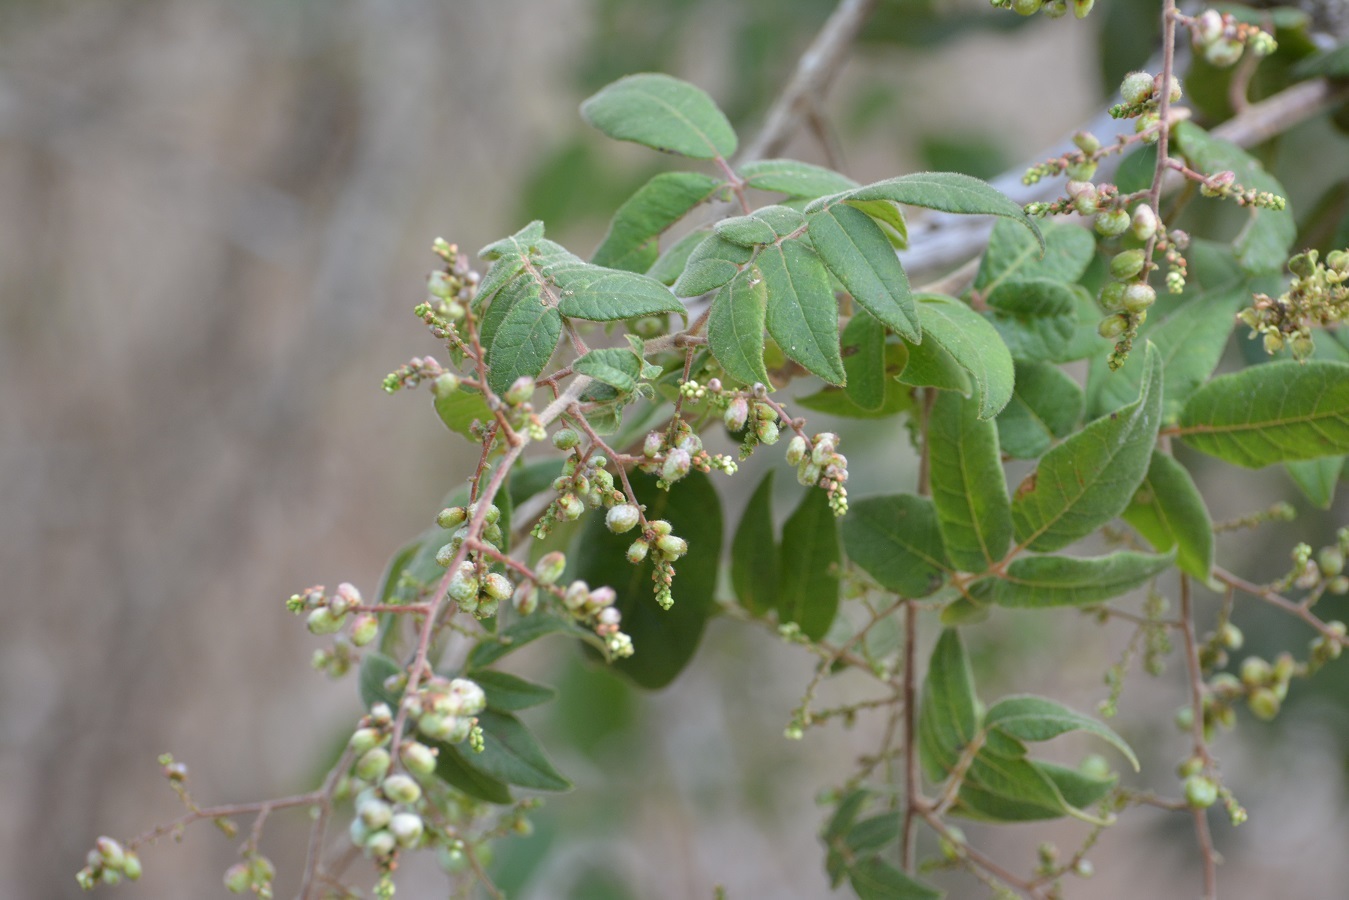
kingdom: Plantae
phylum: Tracheophyta
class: Magnoliopsida
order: Sapindales
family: Anacardiaceae
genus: Rhus
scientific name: Rhus terebinthifolia
